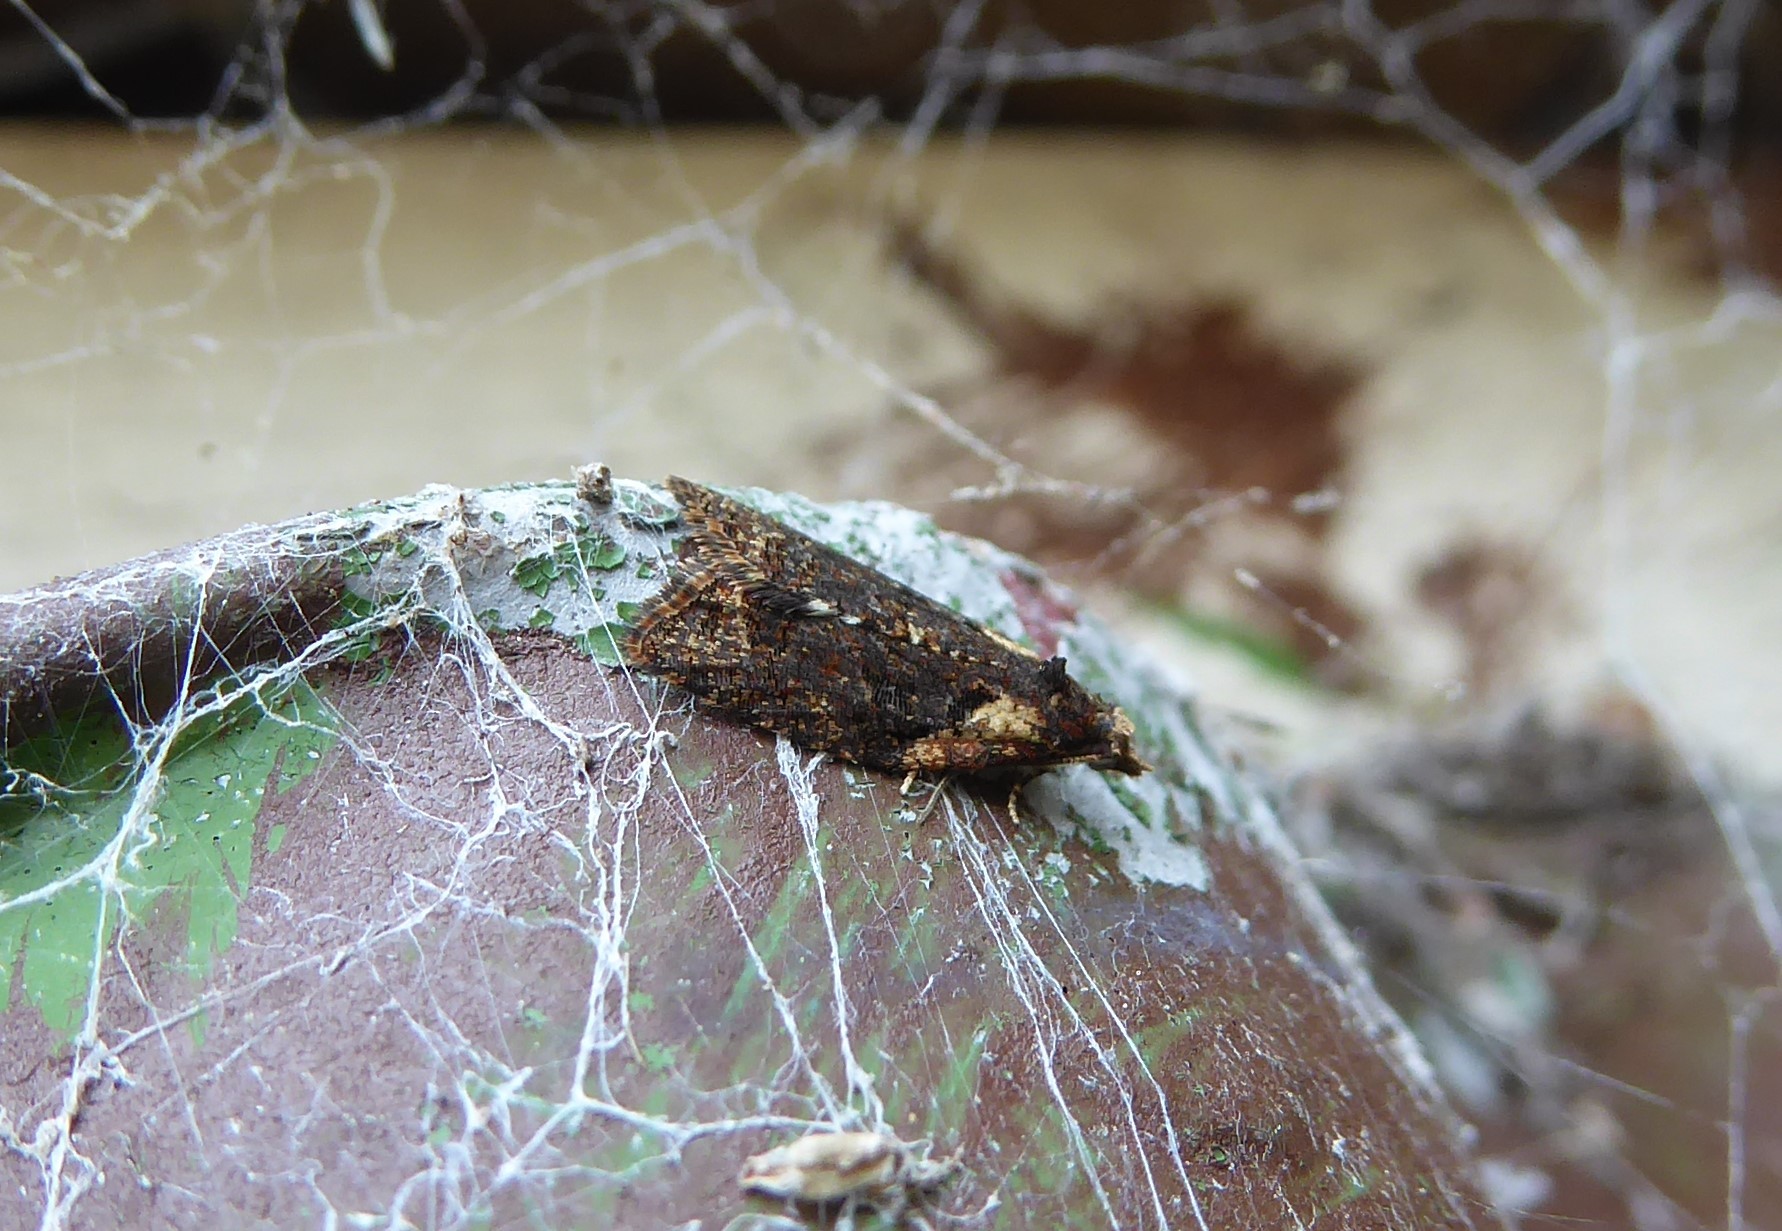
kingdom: Animalia
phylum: Arthropoda
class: Insecta
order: Lepidoptera
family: Tortricidae
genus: Capua
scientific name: Capua intractana
